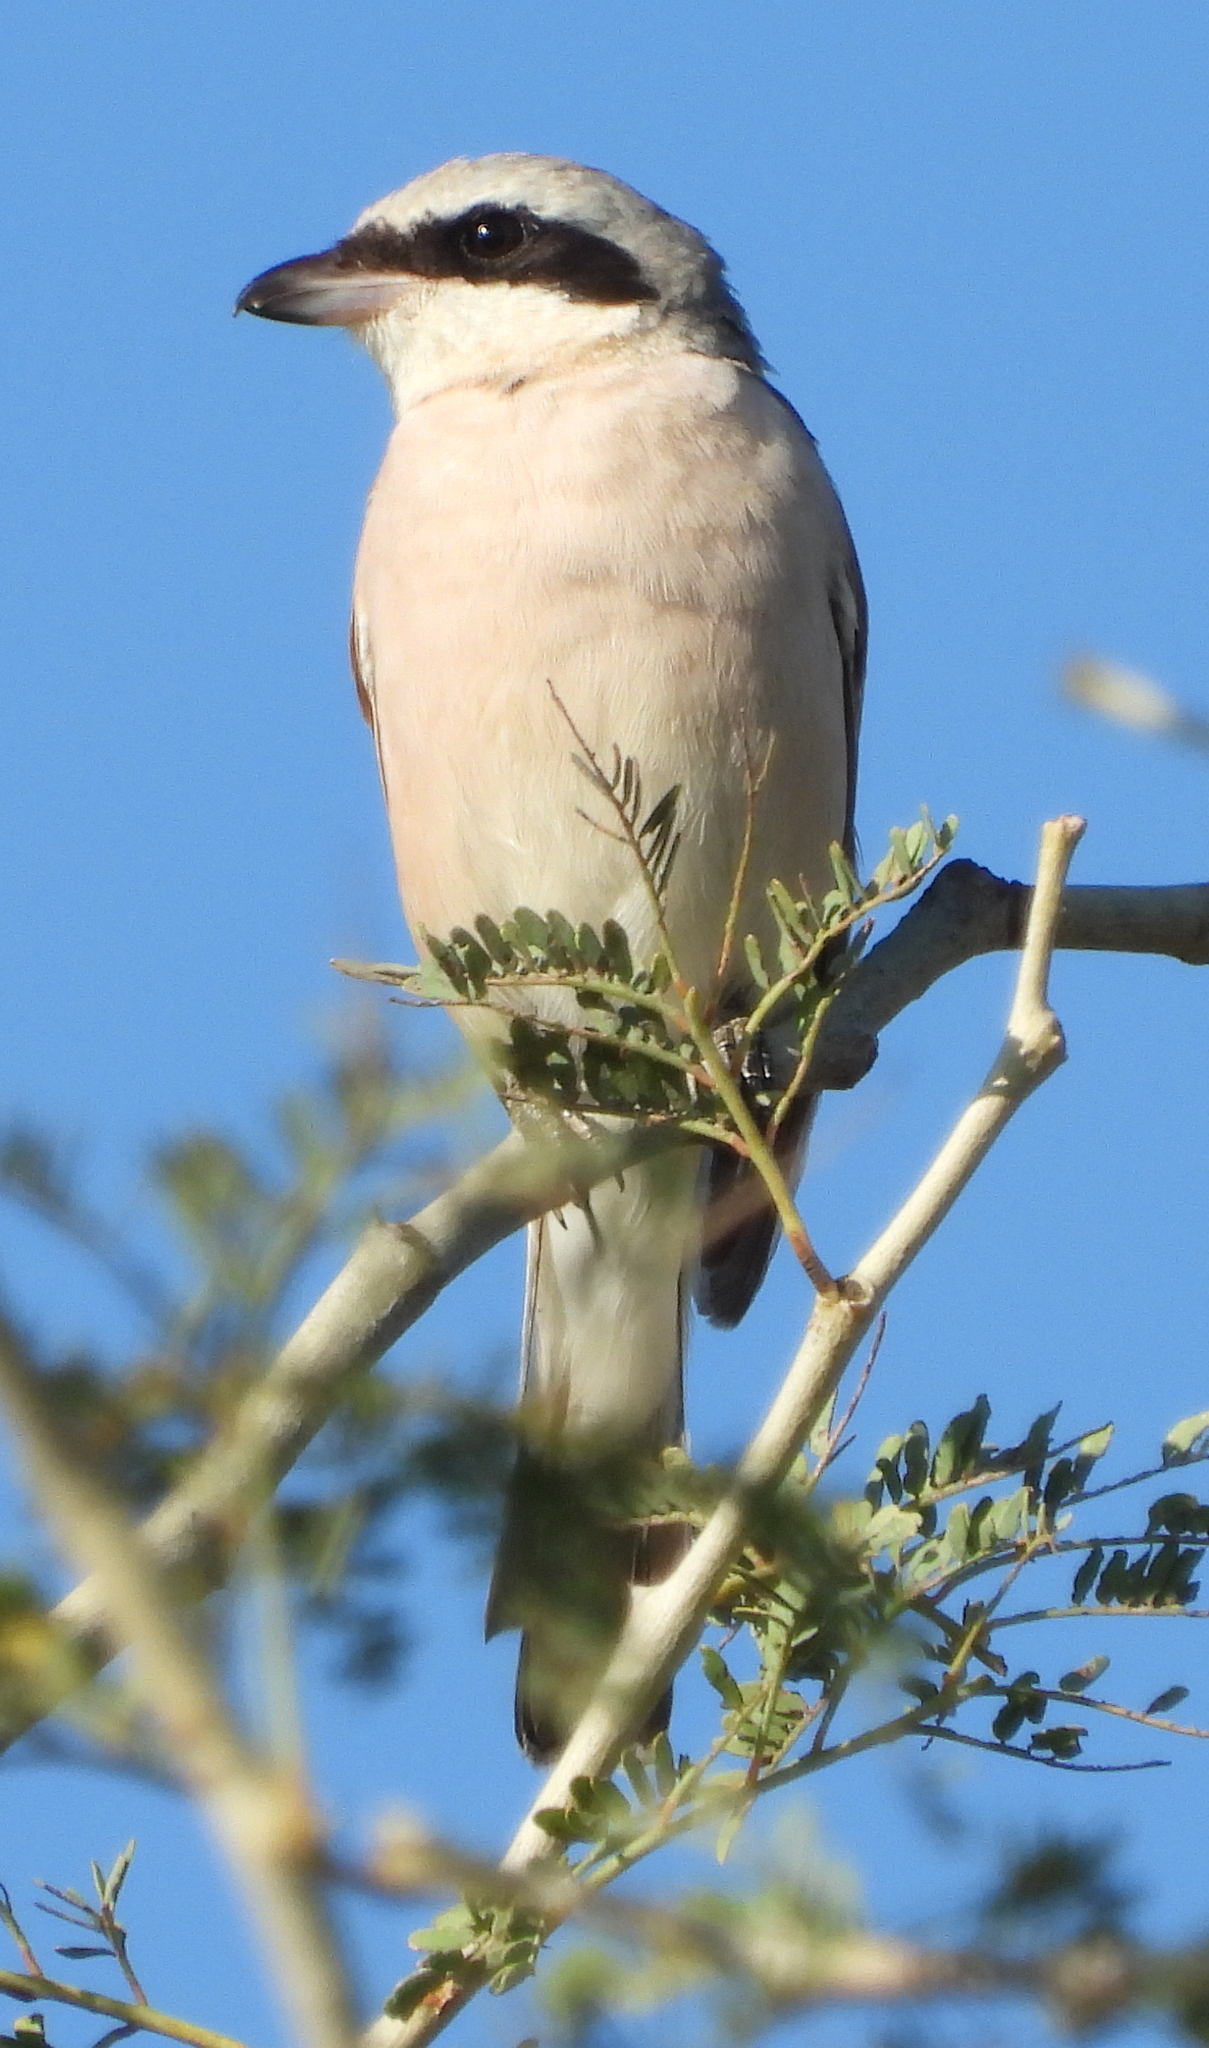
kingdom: Animalia
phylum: Chordata
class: Aves
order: Passeriformes
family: Laniidae
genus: Lanius
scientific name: Lanius collurio
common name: Red-backed shrike
